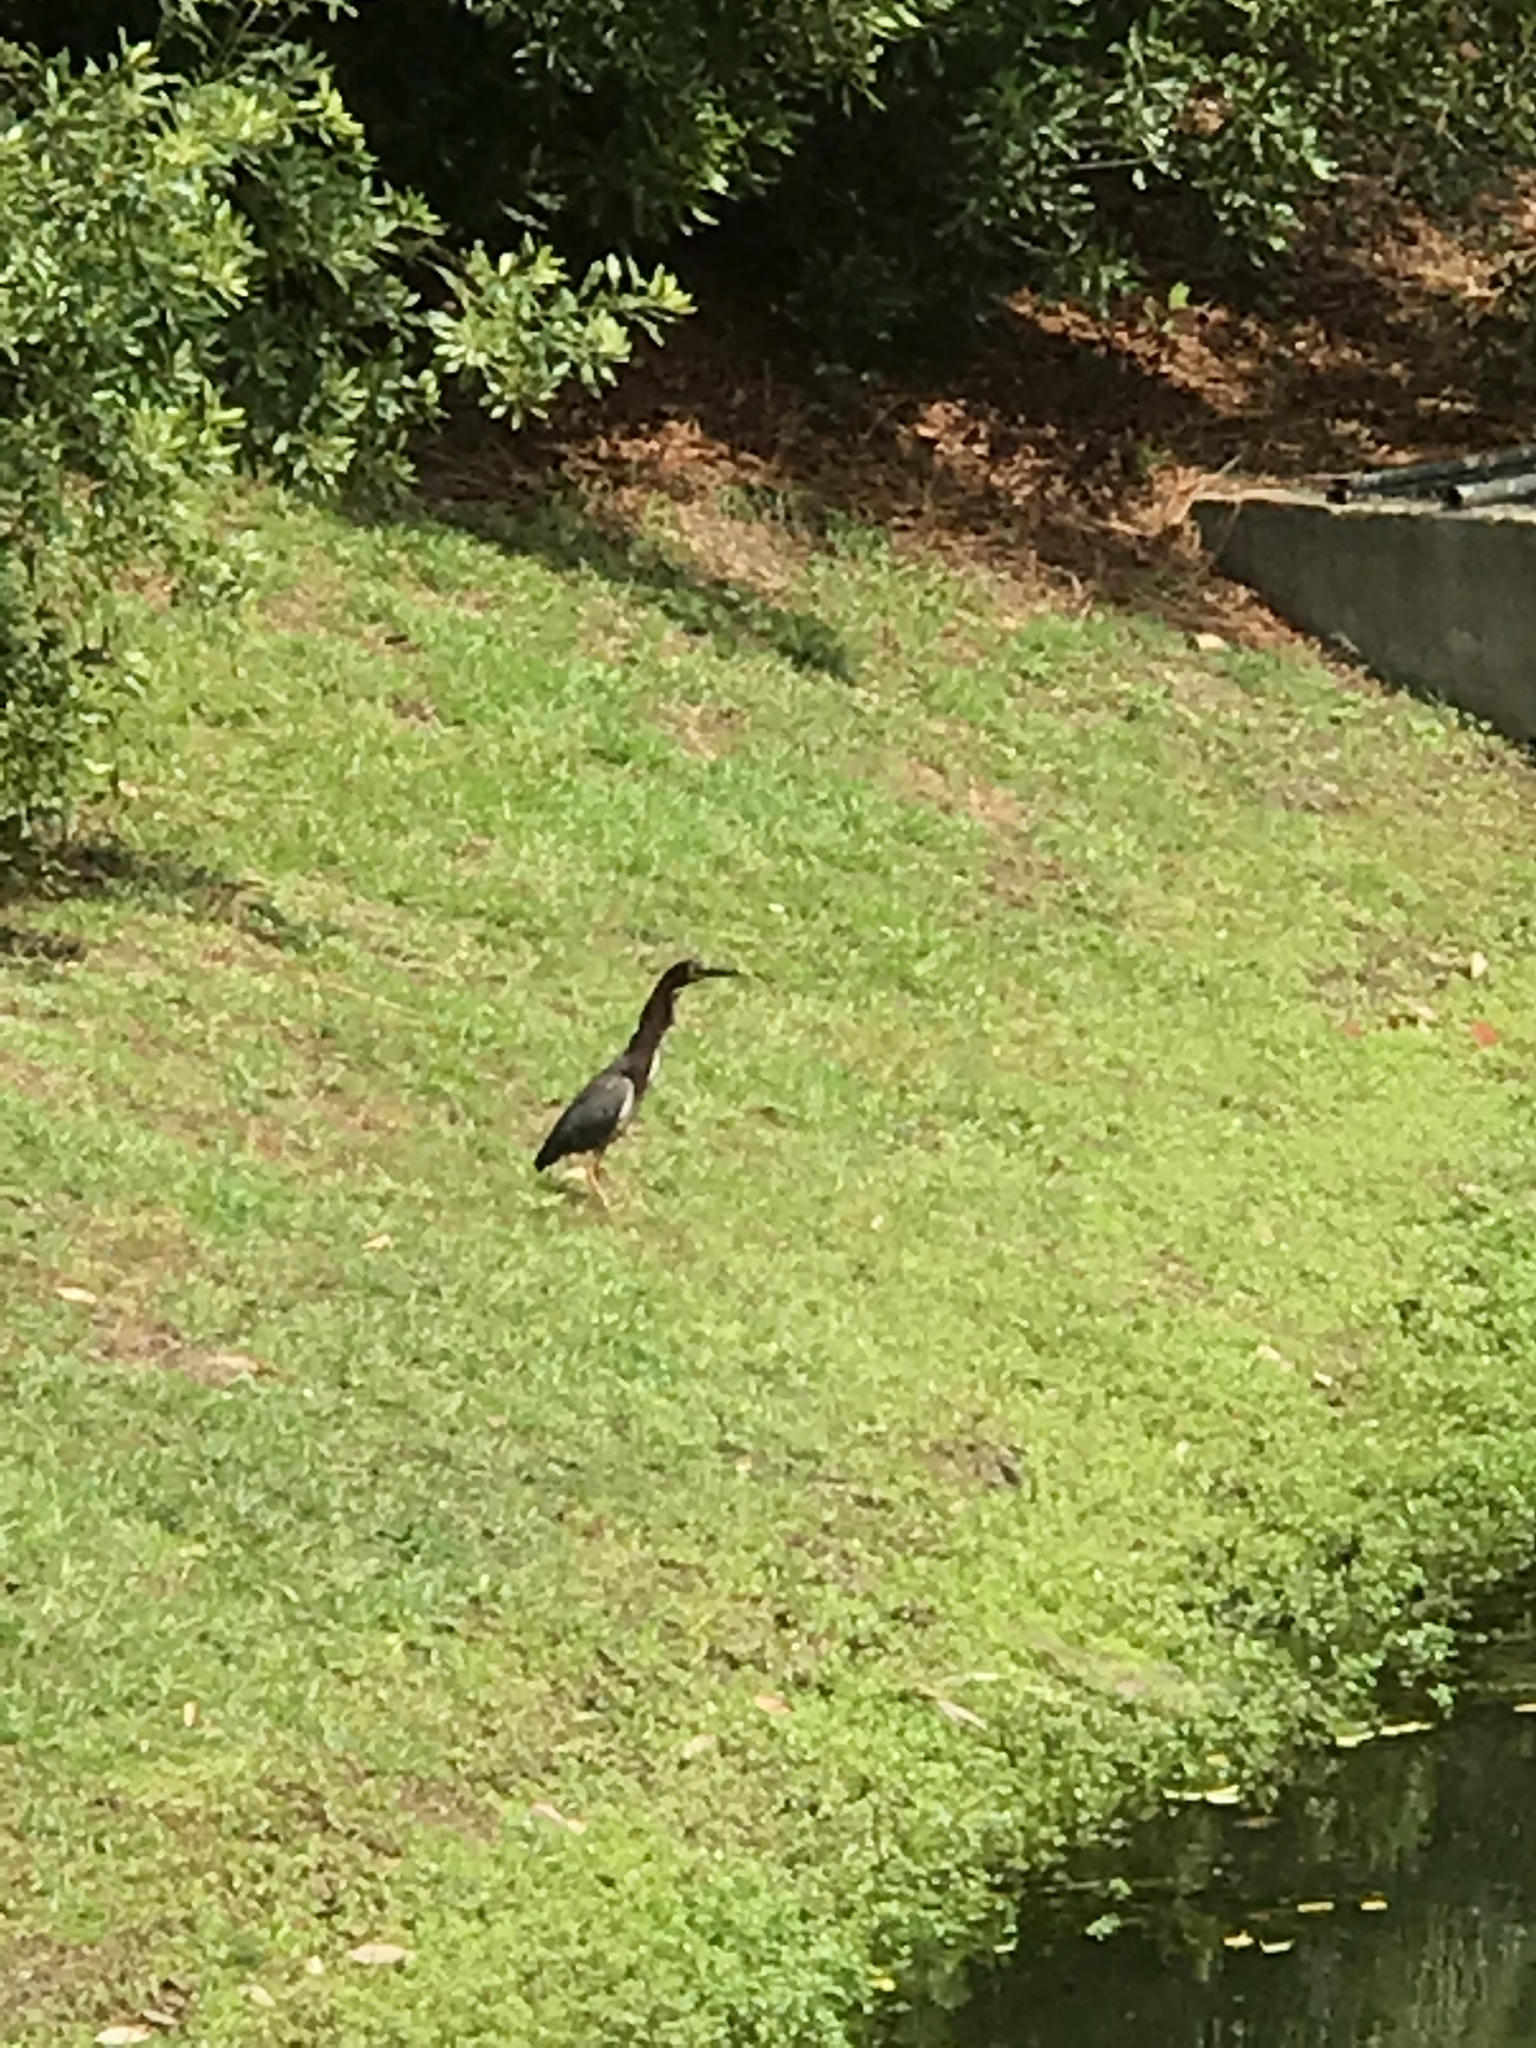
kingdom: Animalia
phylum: Chordata
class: Aves
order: Pelecaniformes
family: Ardeidae
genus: Butorides
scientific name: Butorides virescens
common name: Green heron
